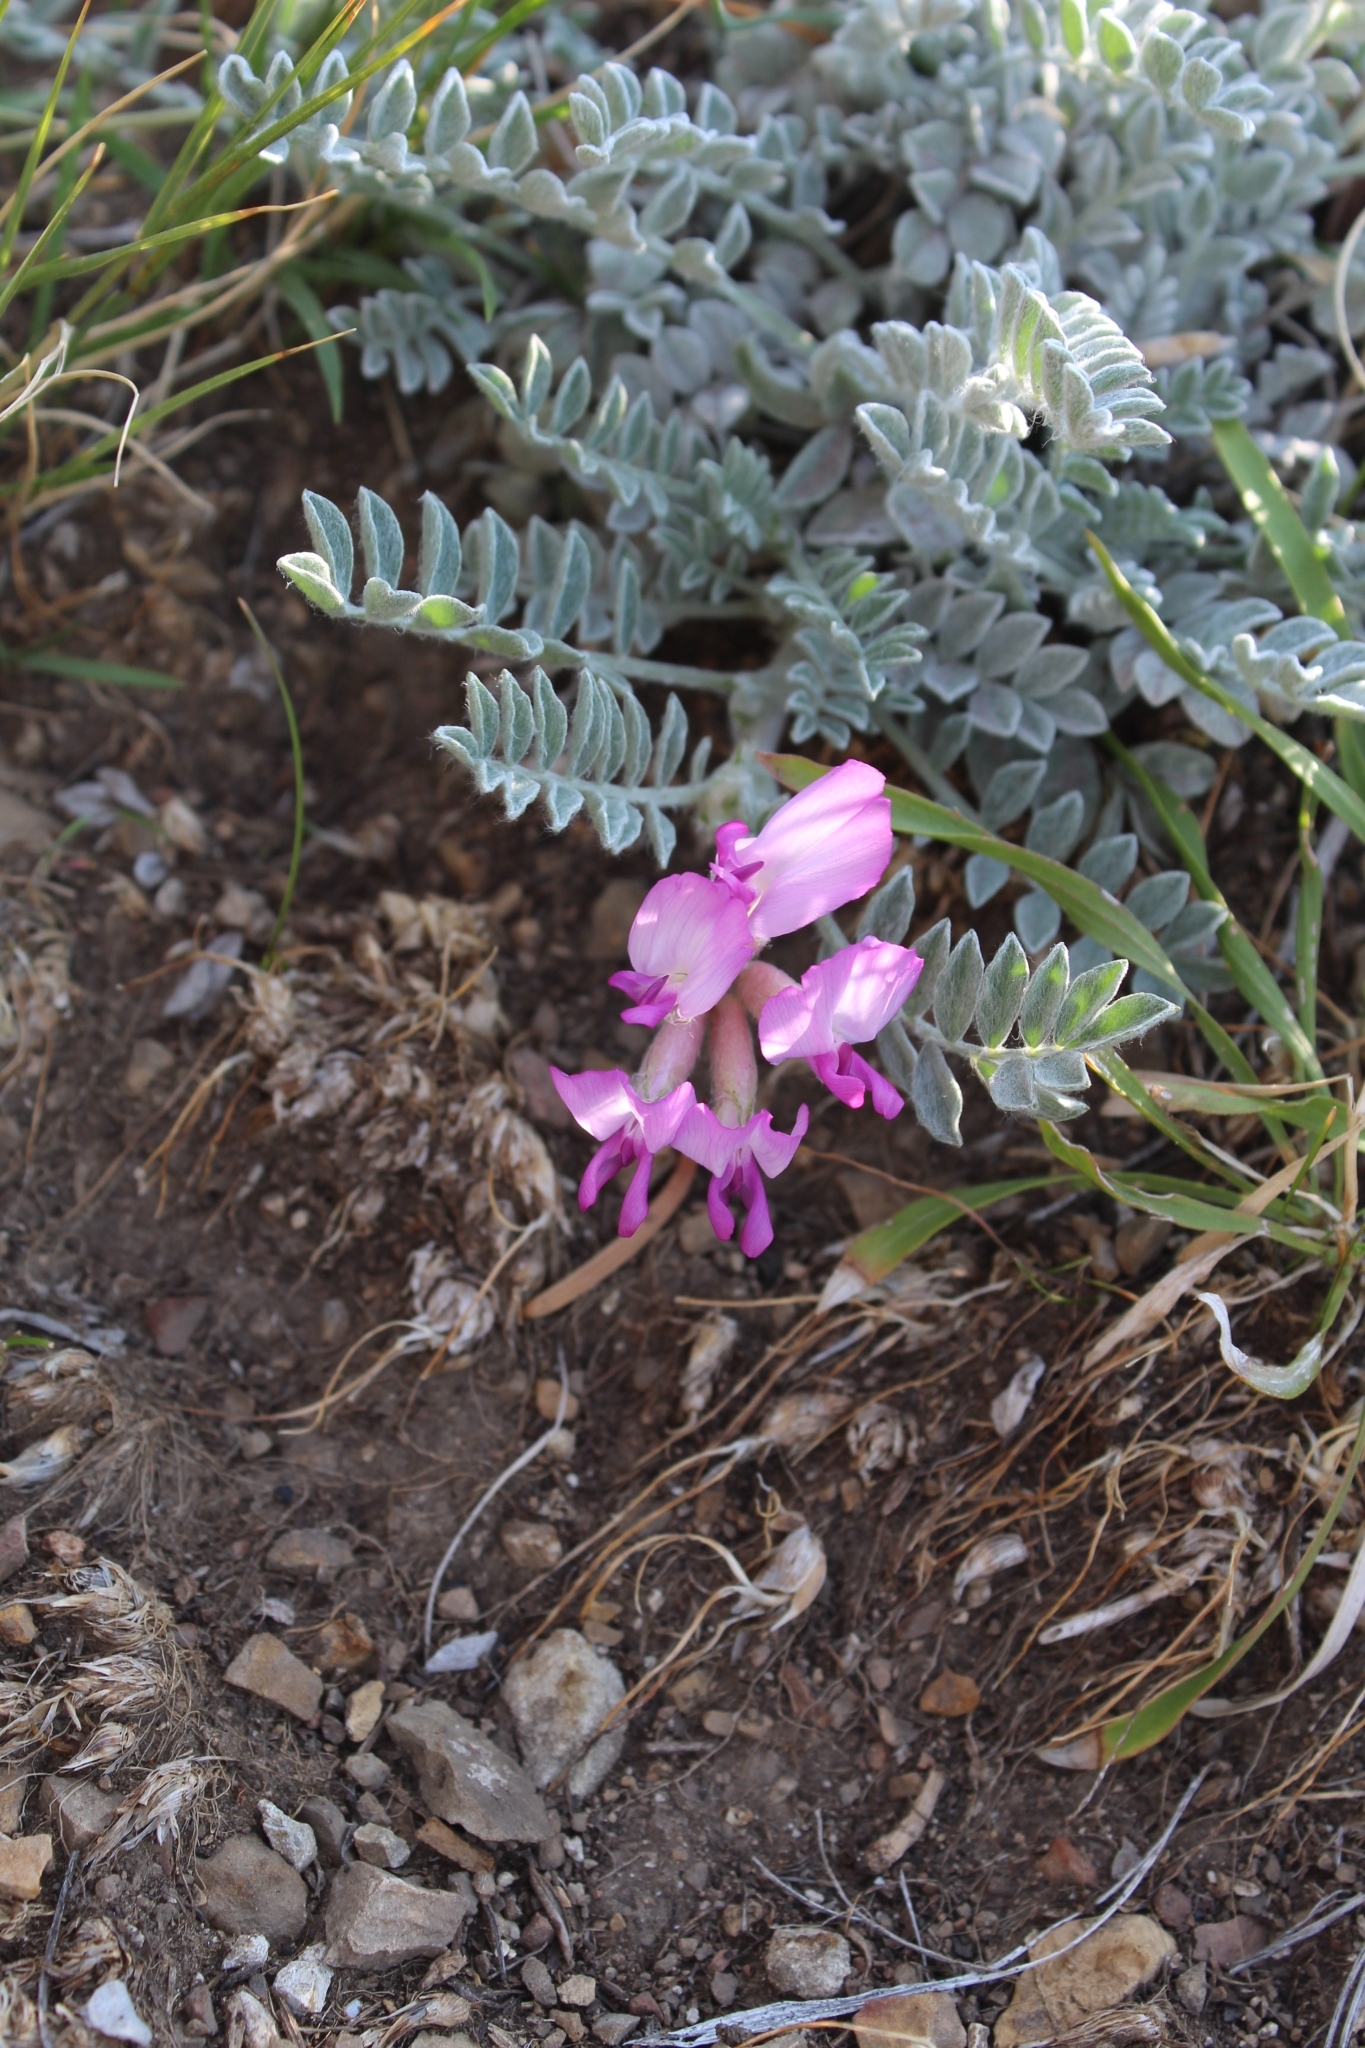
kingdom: Plantae
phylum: Tracheophyta
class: Magnoliopsida
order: Fabales
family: Fabaceae
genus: Astragalus
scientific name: Astragalus utahensis
